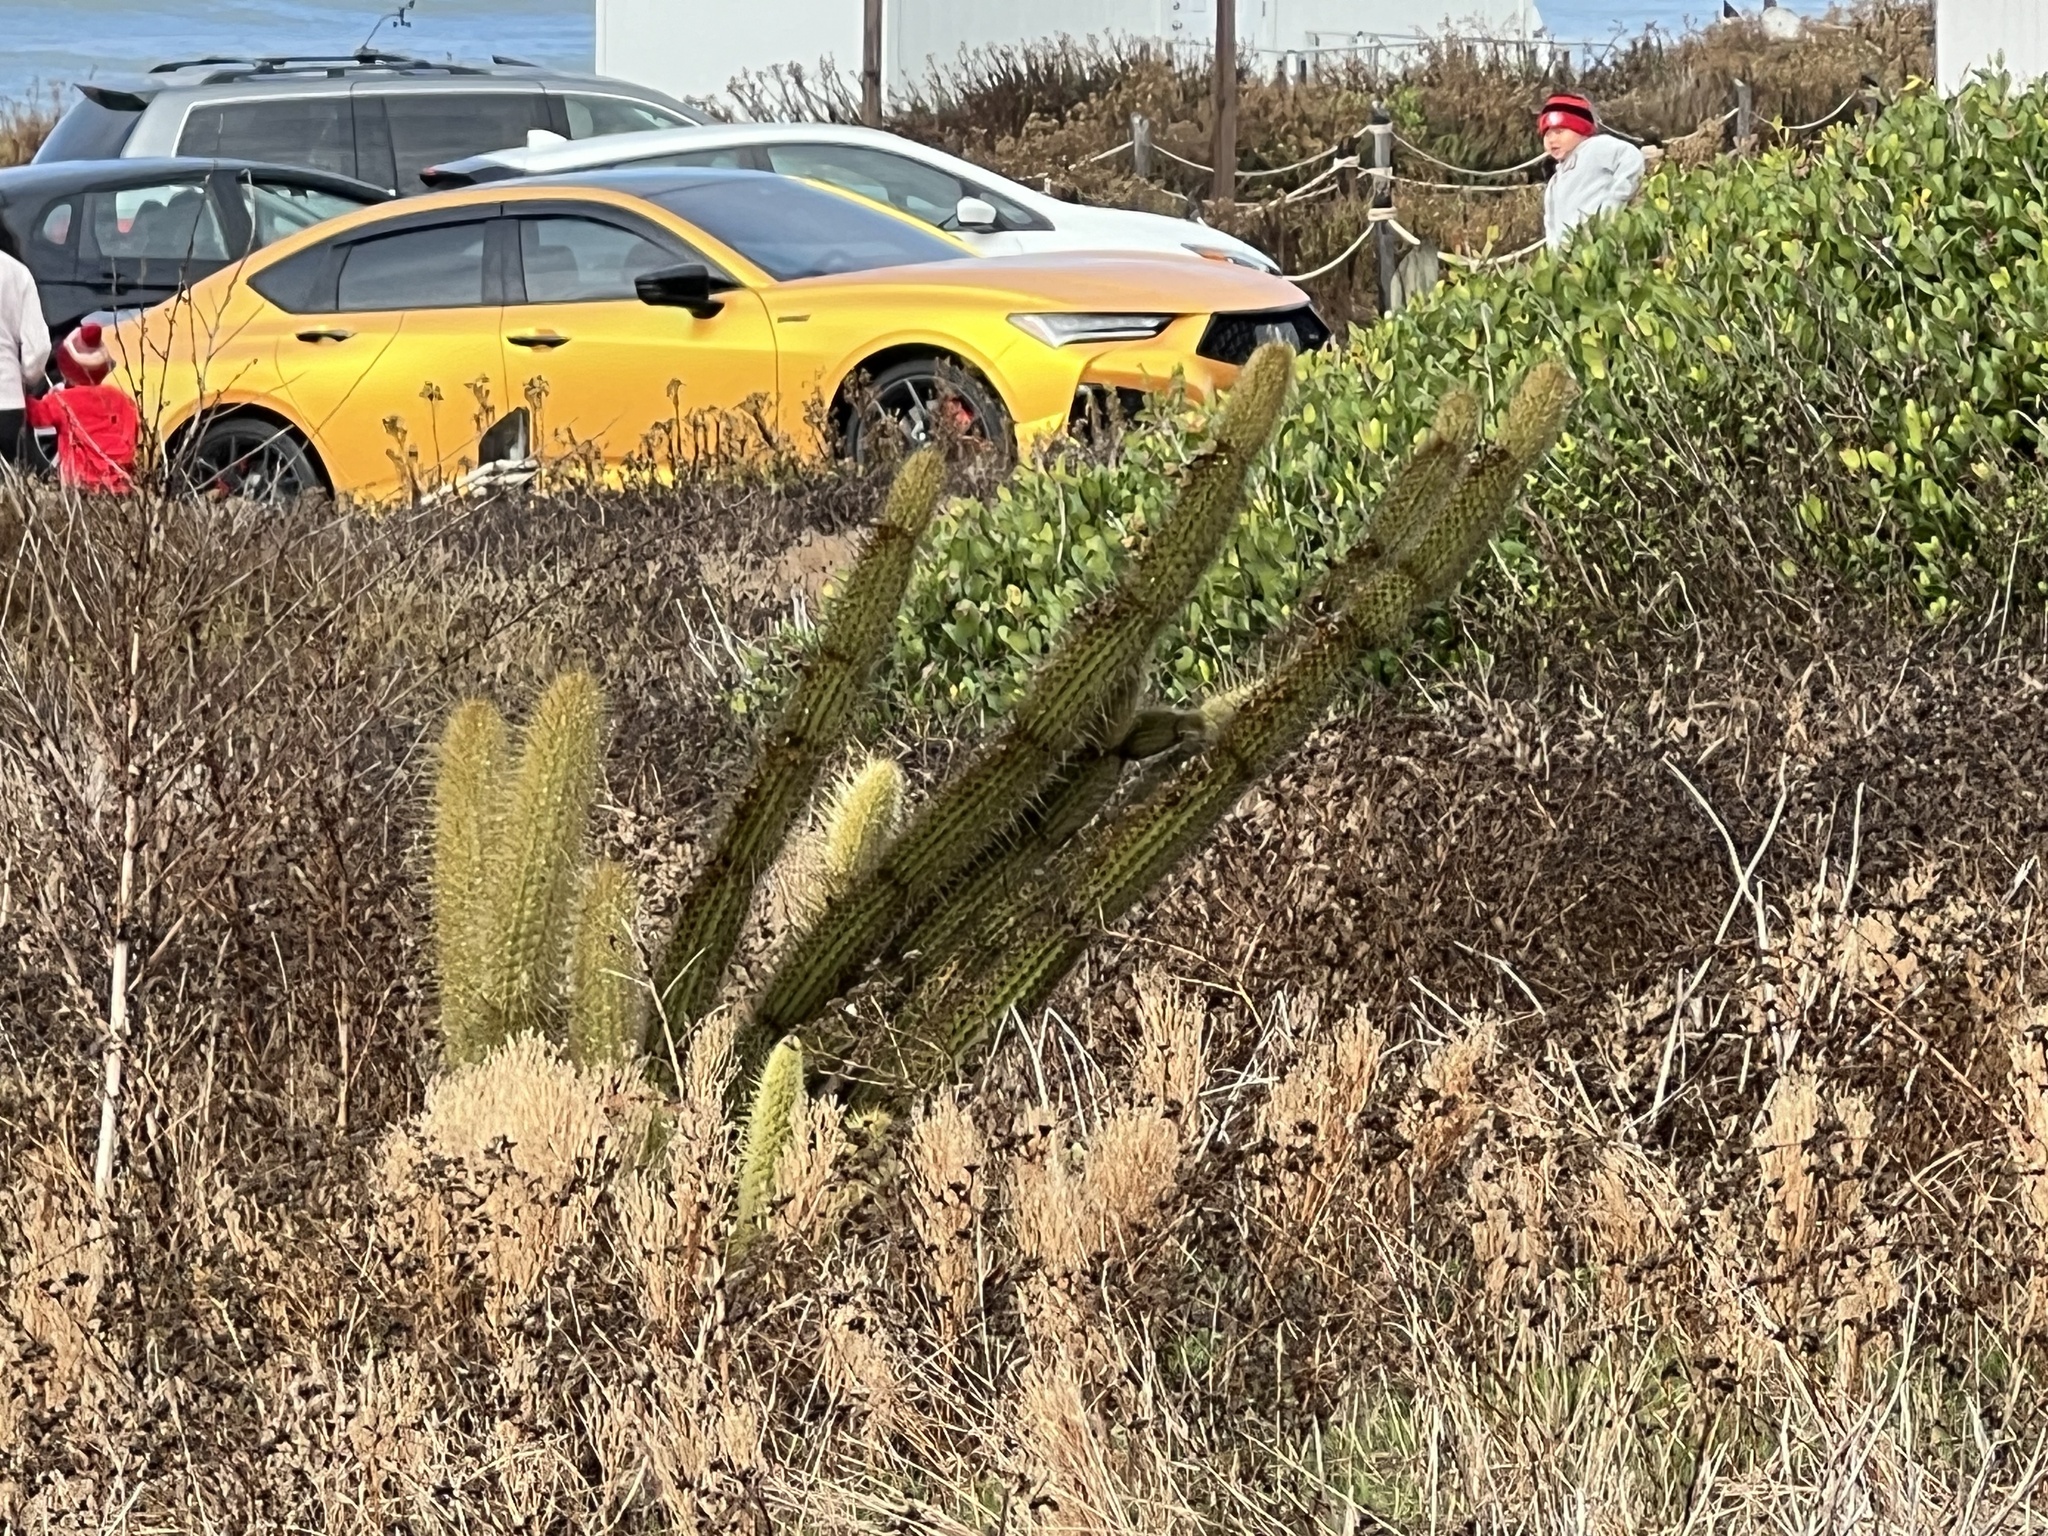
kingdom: Plantae
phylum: Tracheophyta
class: Magnoliopsida
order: Caryophyllales
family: Cactaceae
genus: Bergerocactus
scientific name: Bergerocactus emoryi
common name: Golden snakecactus
